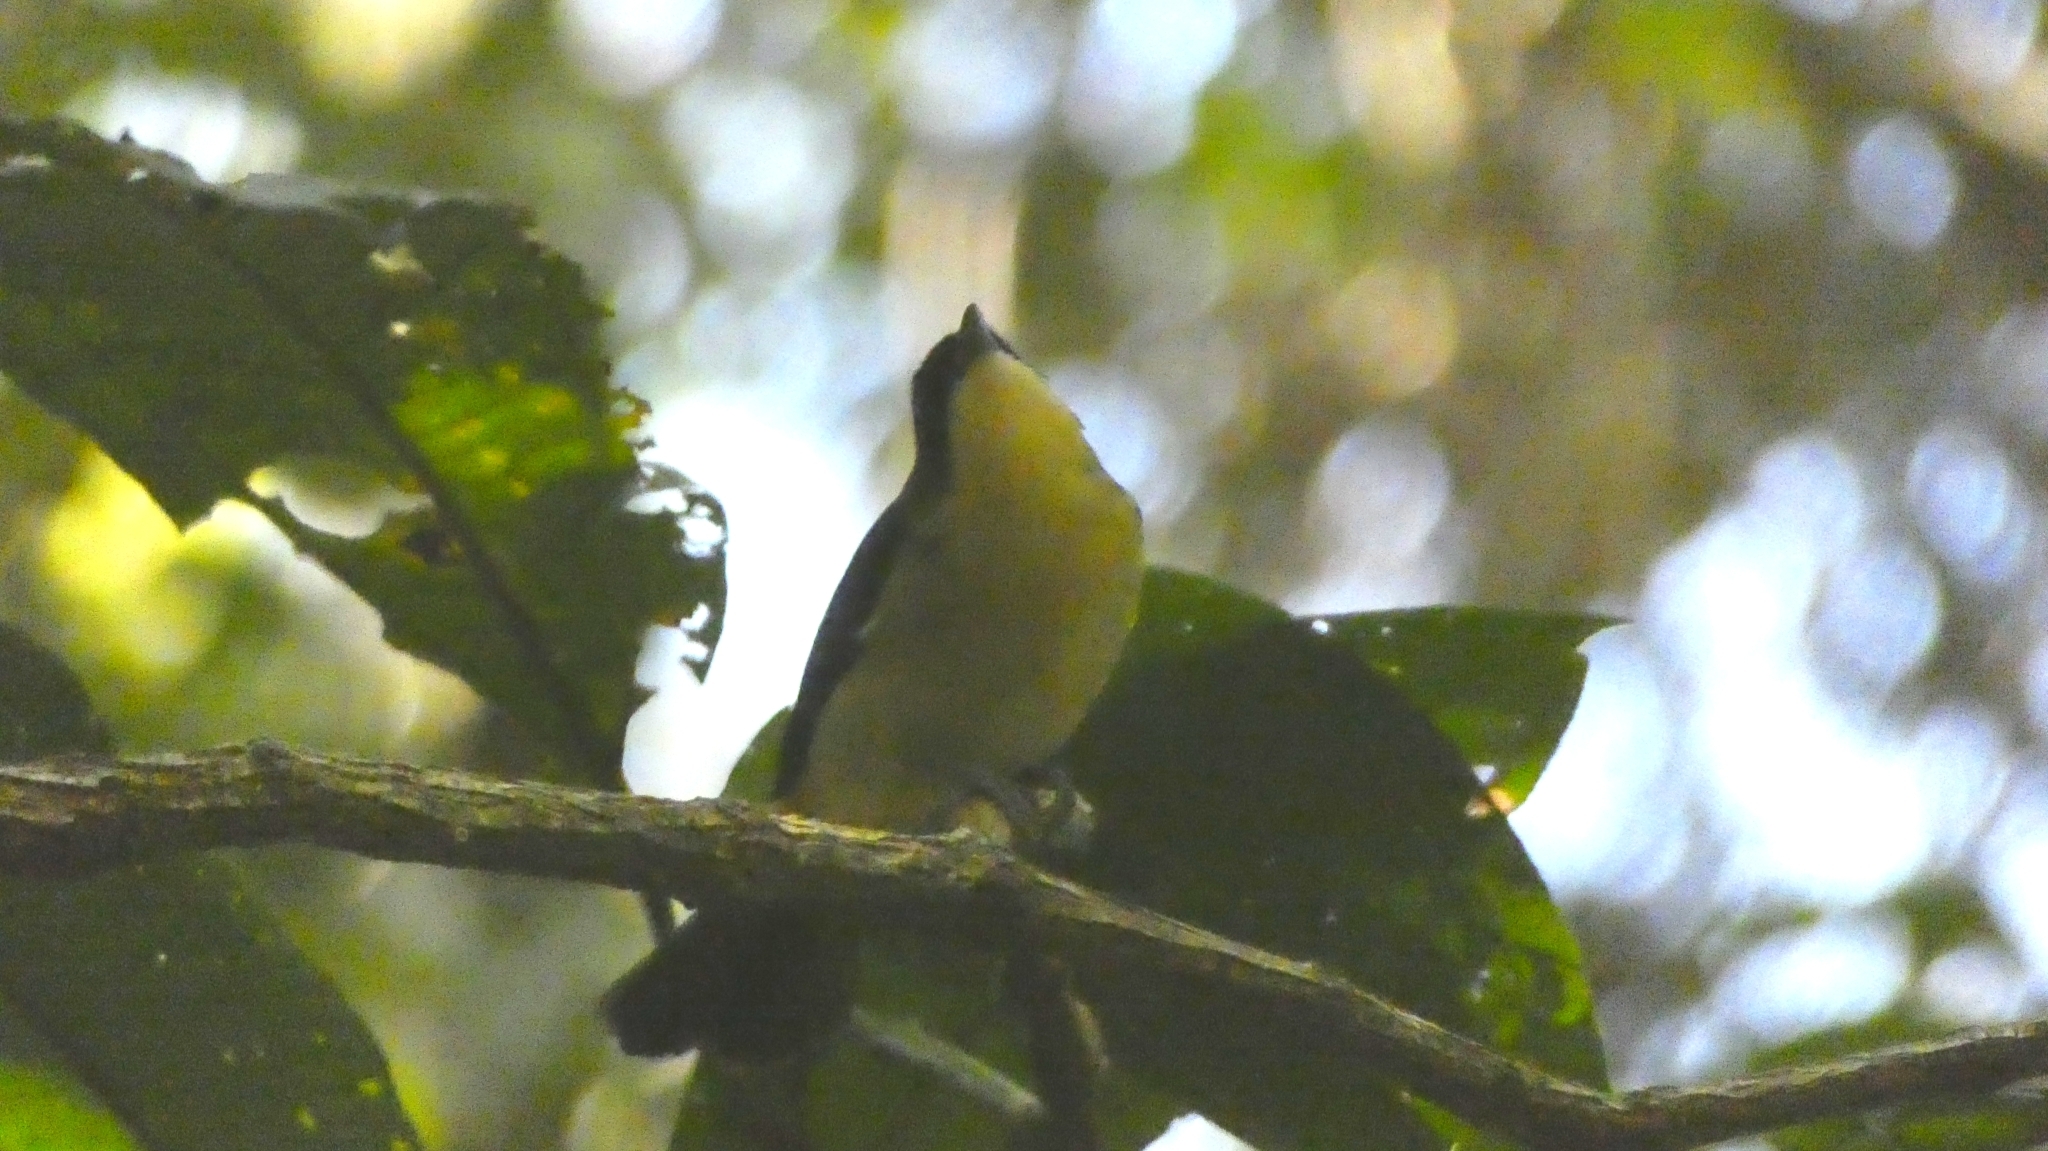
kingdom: Animalia
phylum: Chordata
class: Aves
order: Passeriformes
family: Thraupidae
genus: Trichothraupis
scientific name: Trichothraupis melanops
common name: Black-goggled tanager
